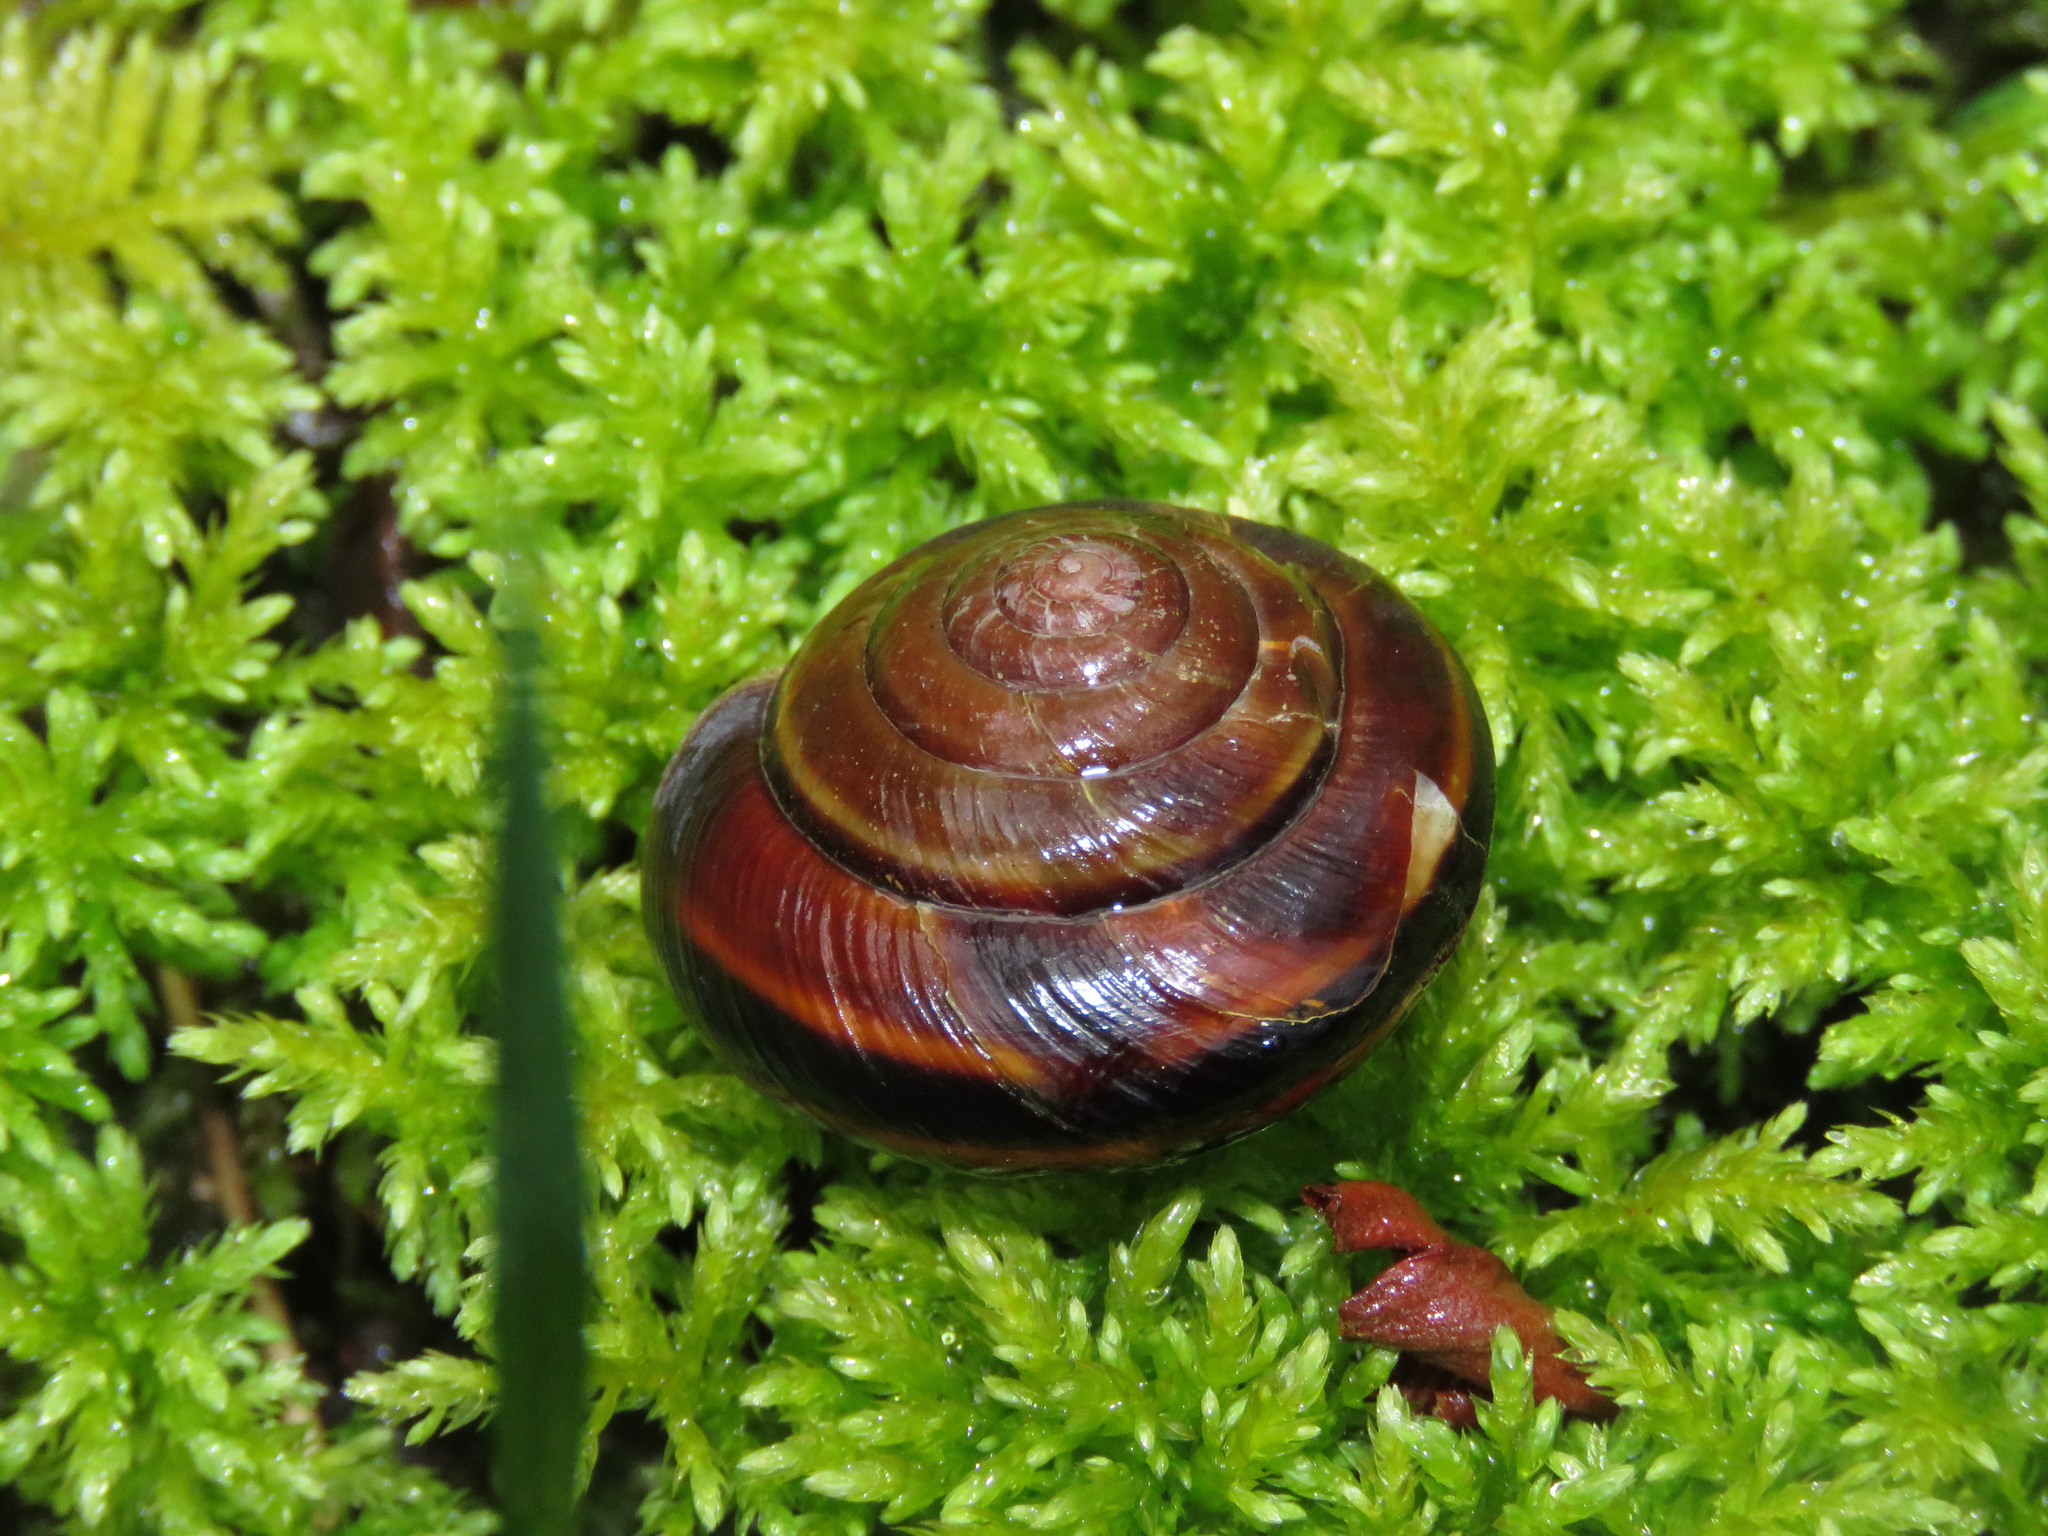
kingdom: Animalia
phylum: Mollusca
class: Gastropoda
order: Stylommatophora
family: Xanthonychidae
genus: Monadenia
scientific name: Monadenia fidelis
